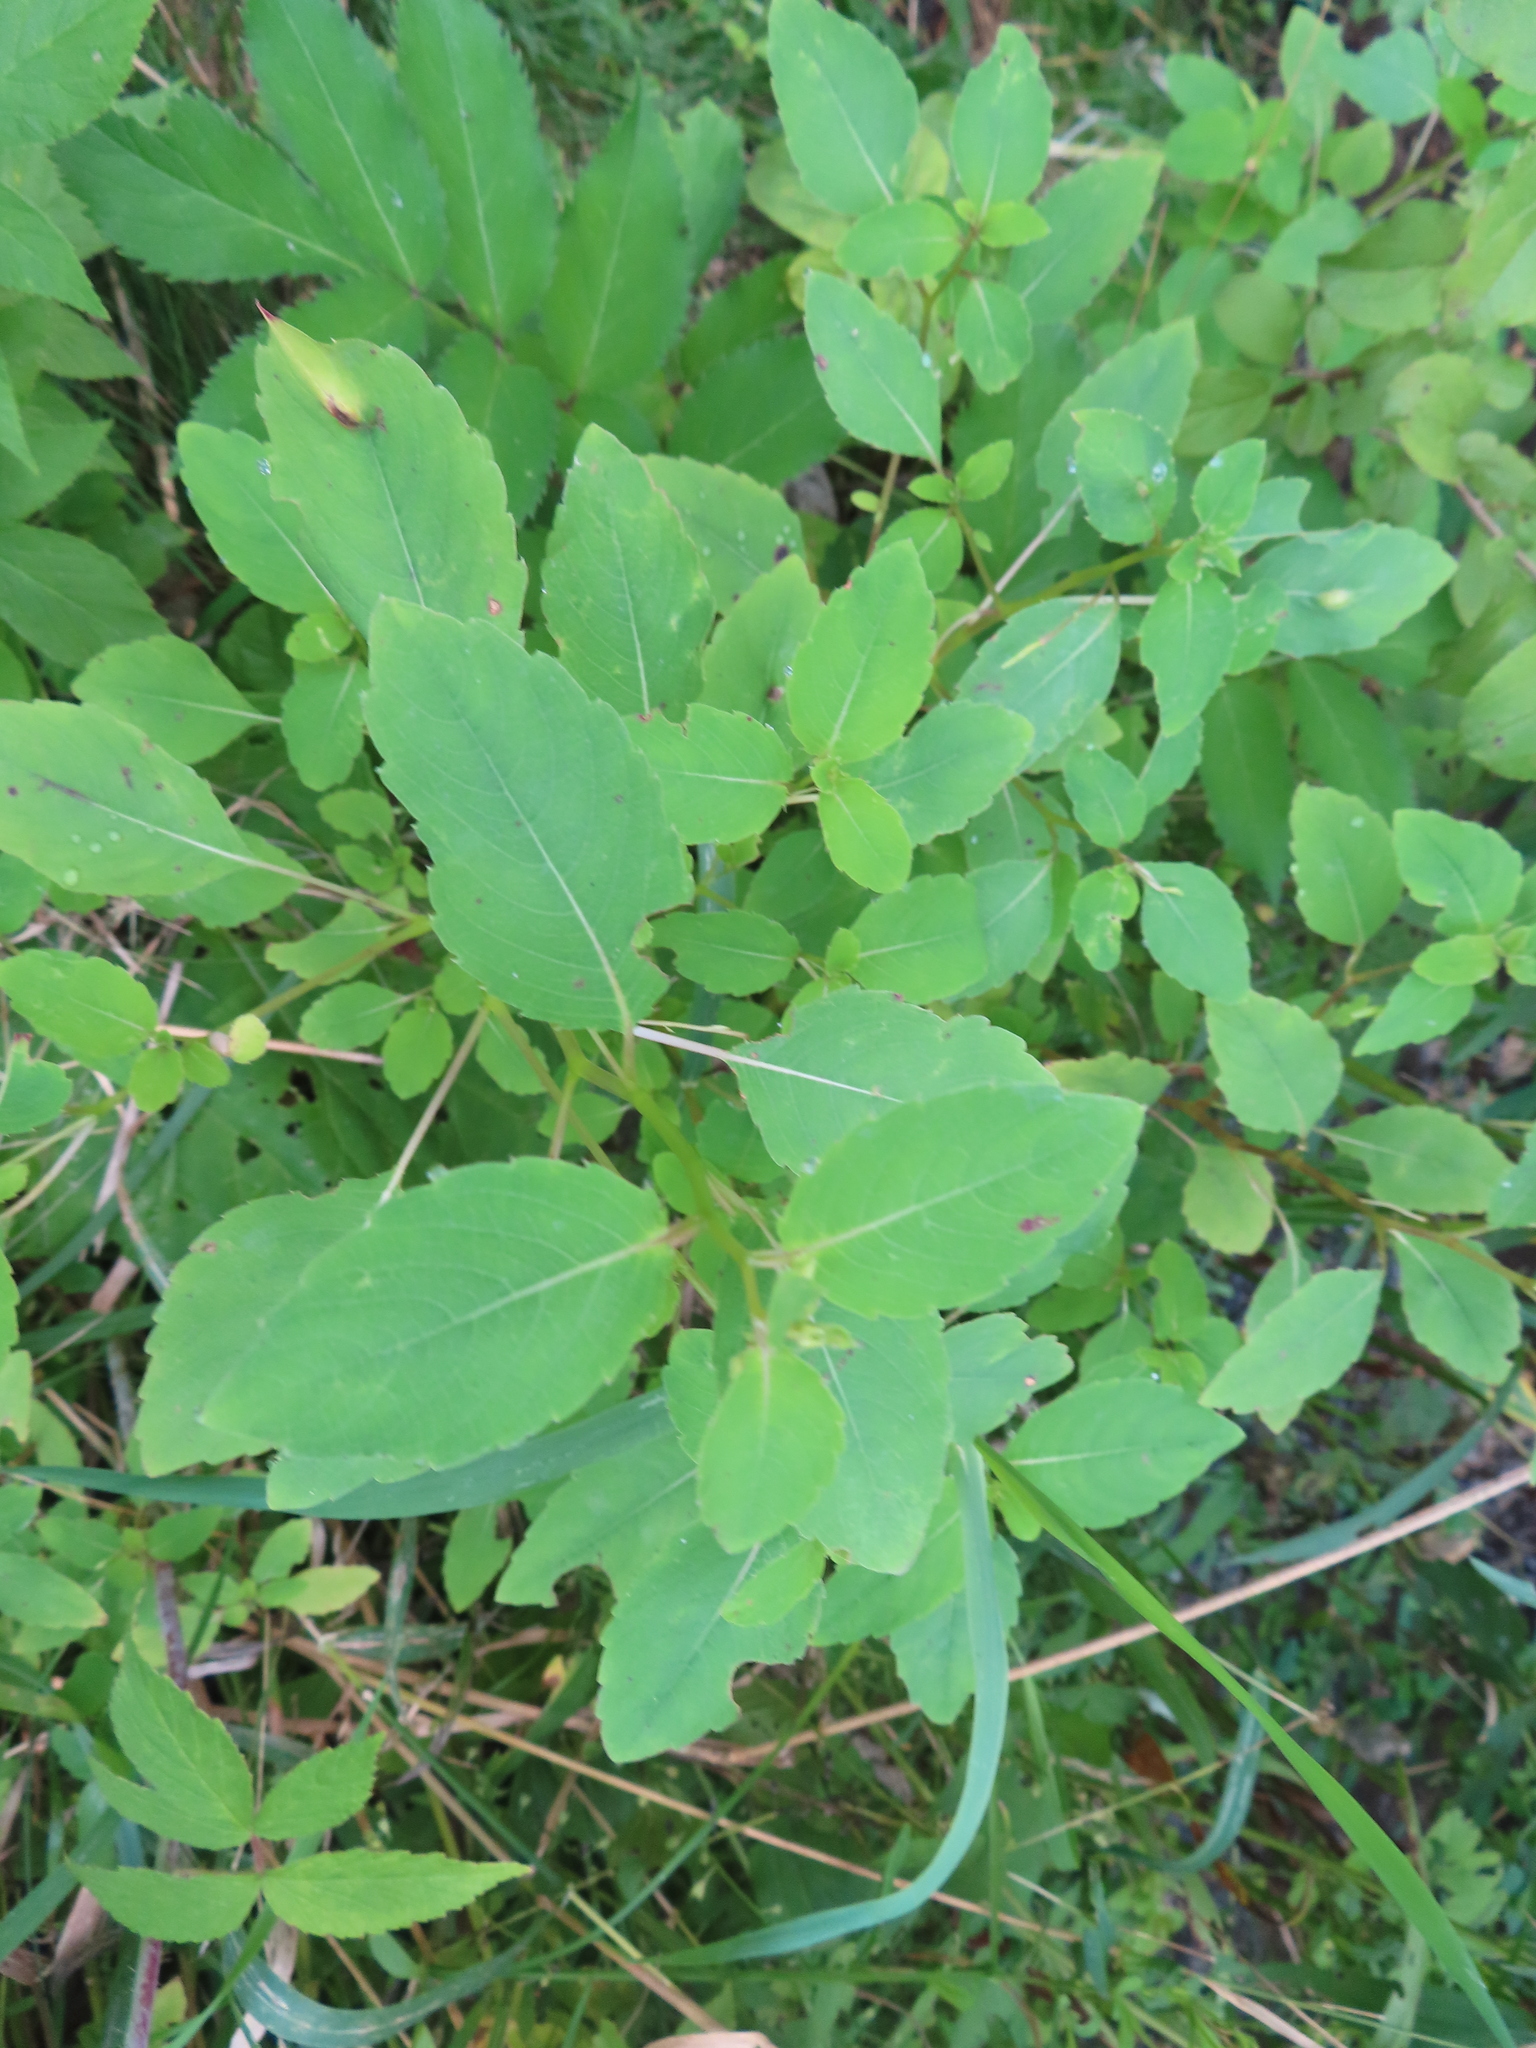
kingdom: Plantae
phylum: Tracheophyta
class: Magnoliopsida
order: Ericales
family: Balsaminaceae
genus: Impatiens
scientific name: Impatiens capensis
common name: Orange balsam
